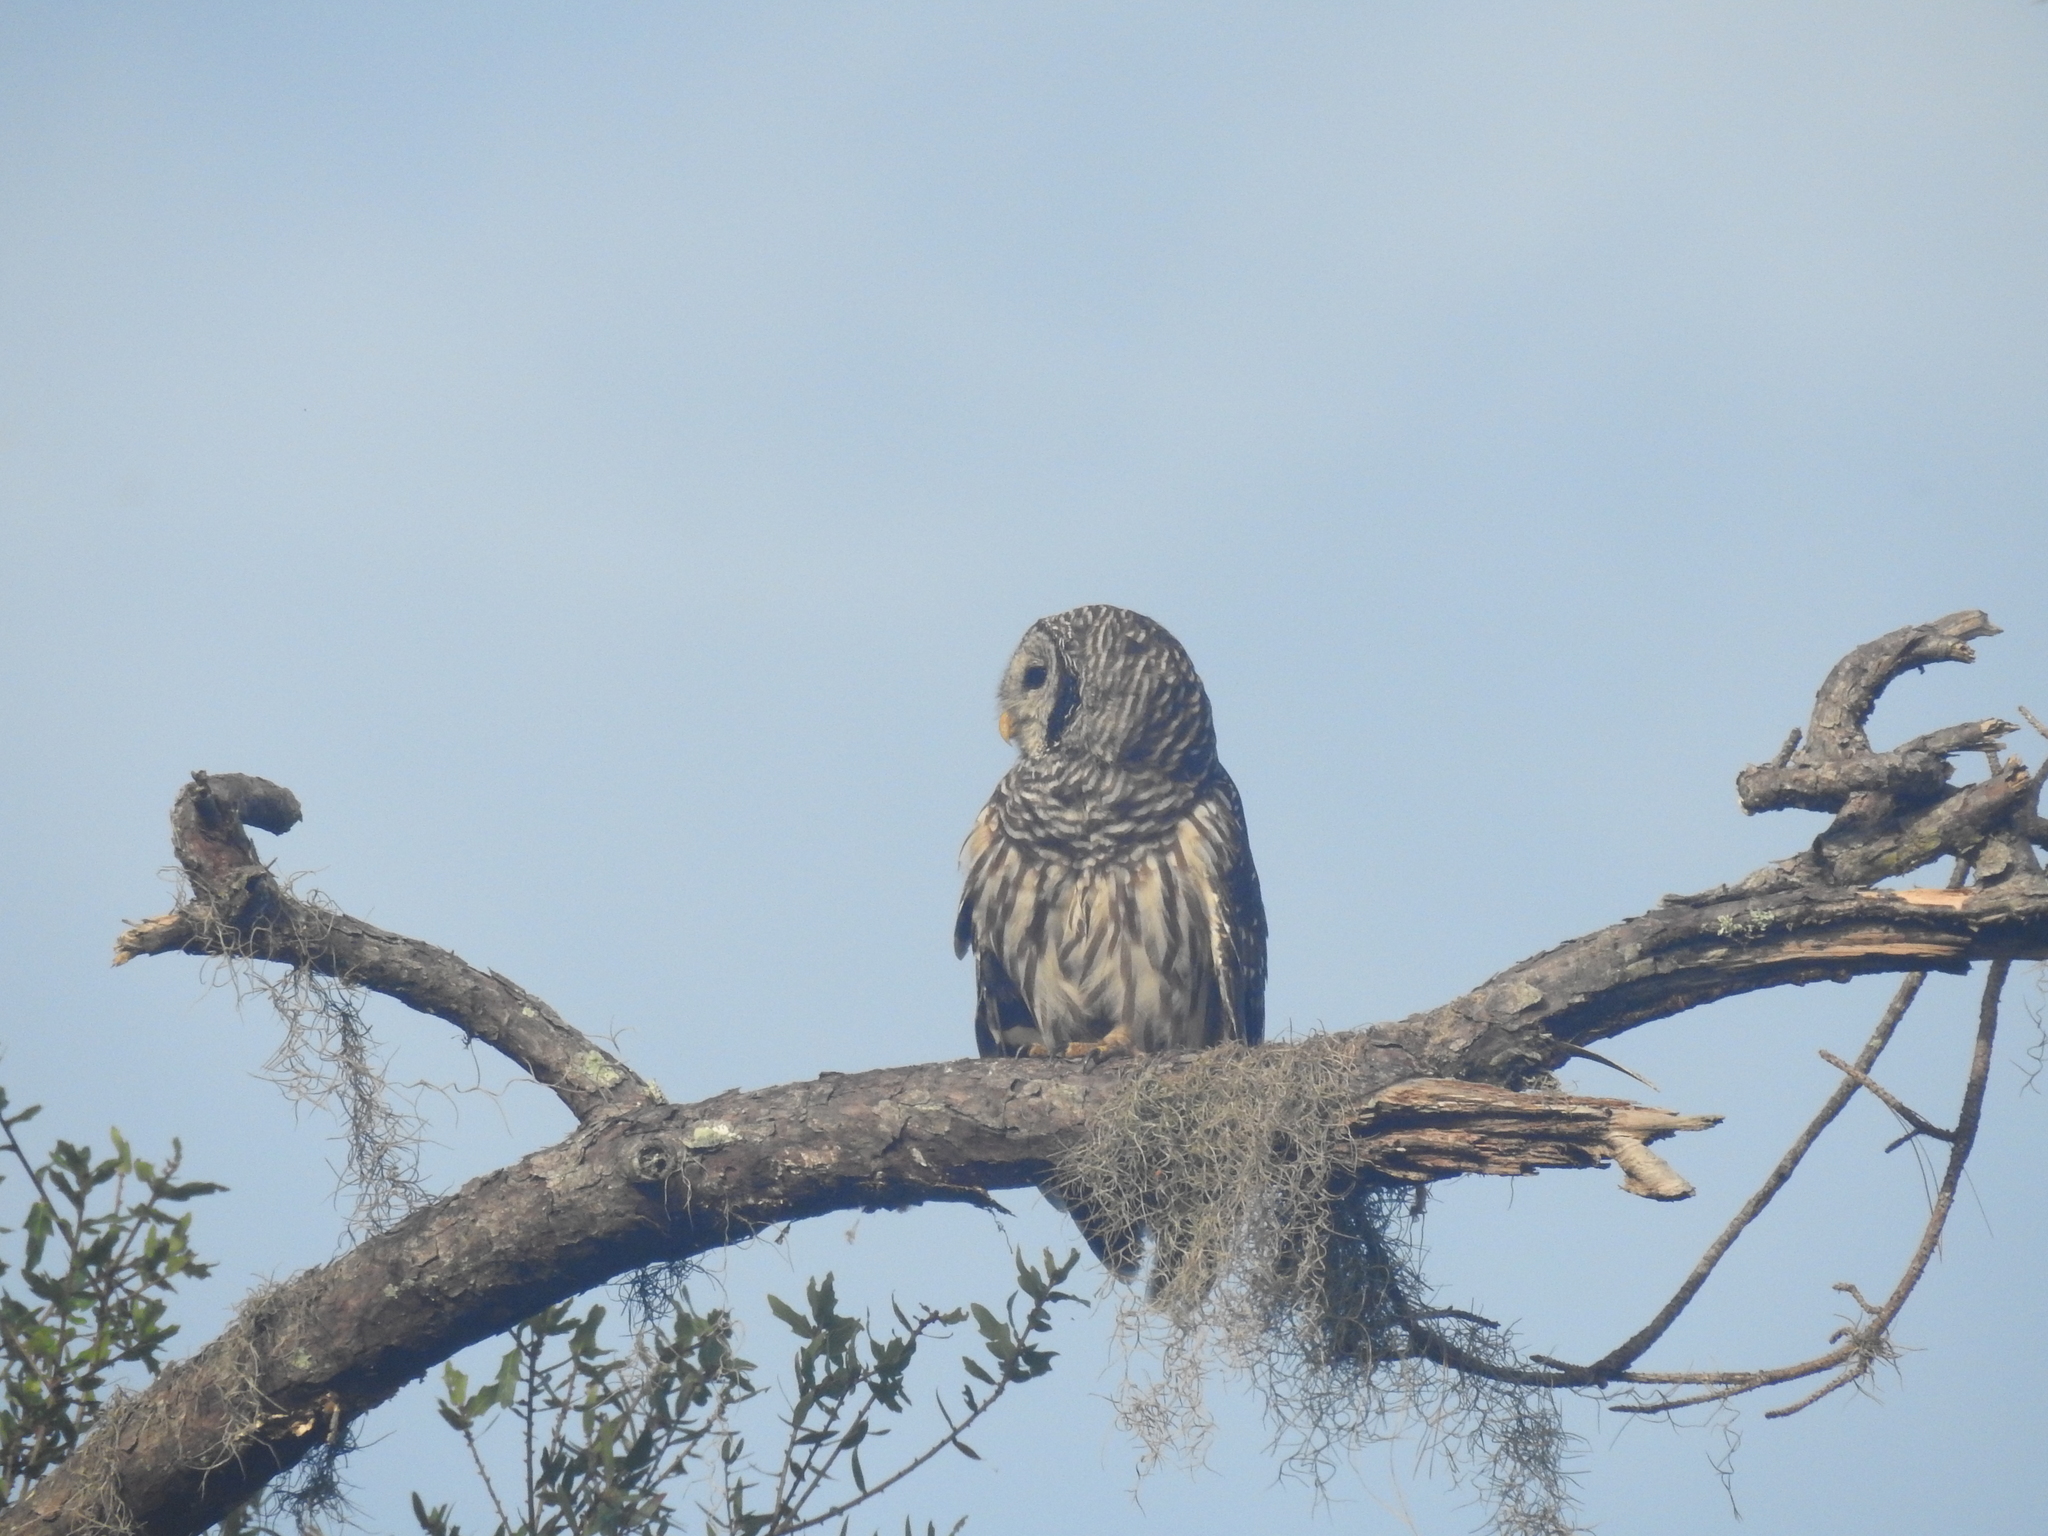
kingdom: Animalia
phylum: Chordata
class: Aves
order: Strigiformes
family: Strigidae
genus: Strix
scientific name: Strix varia
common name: Barred owl
